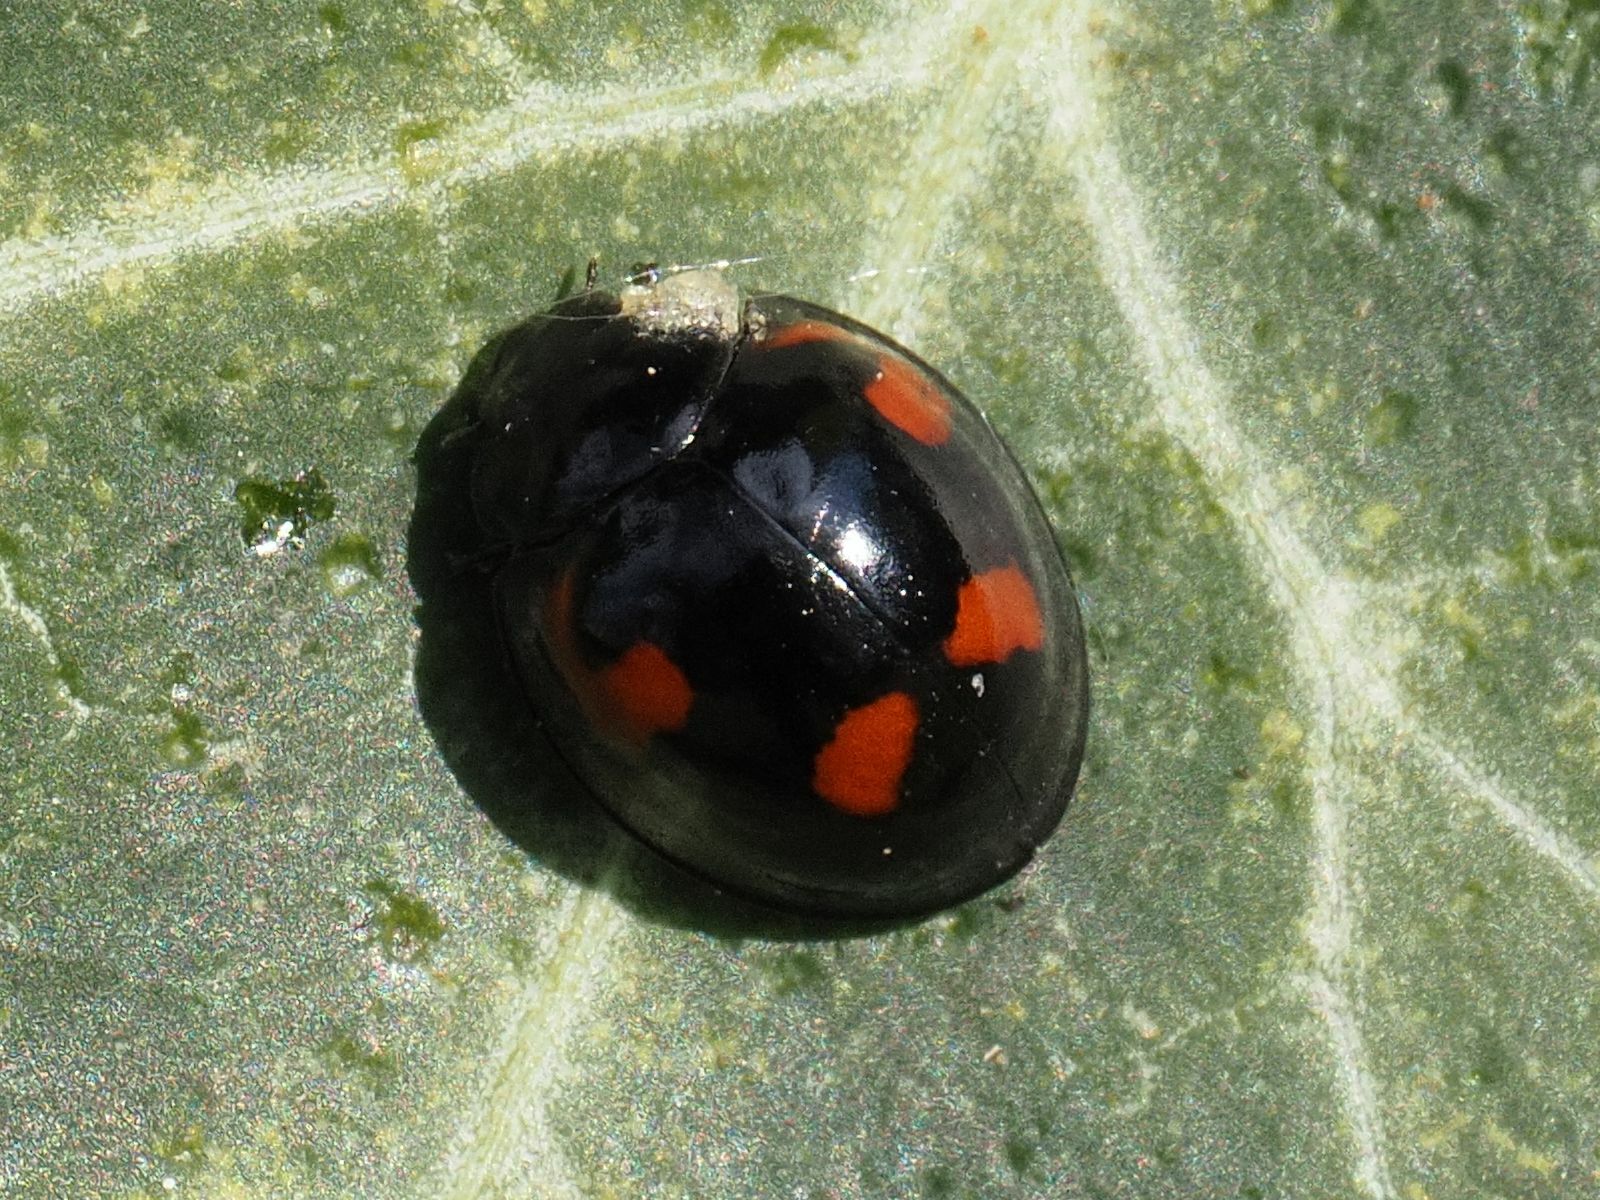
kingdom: Animalia
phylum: Arthropoda
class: Insecta
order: Coleoptera
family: Coccinellidae
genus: Brumus
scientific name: Brumus quadripustulatus
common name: Ladybird beetle
